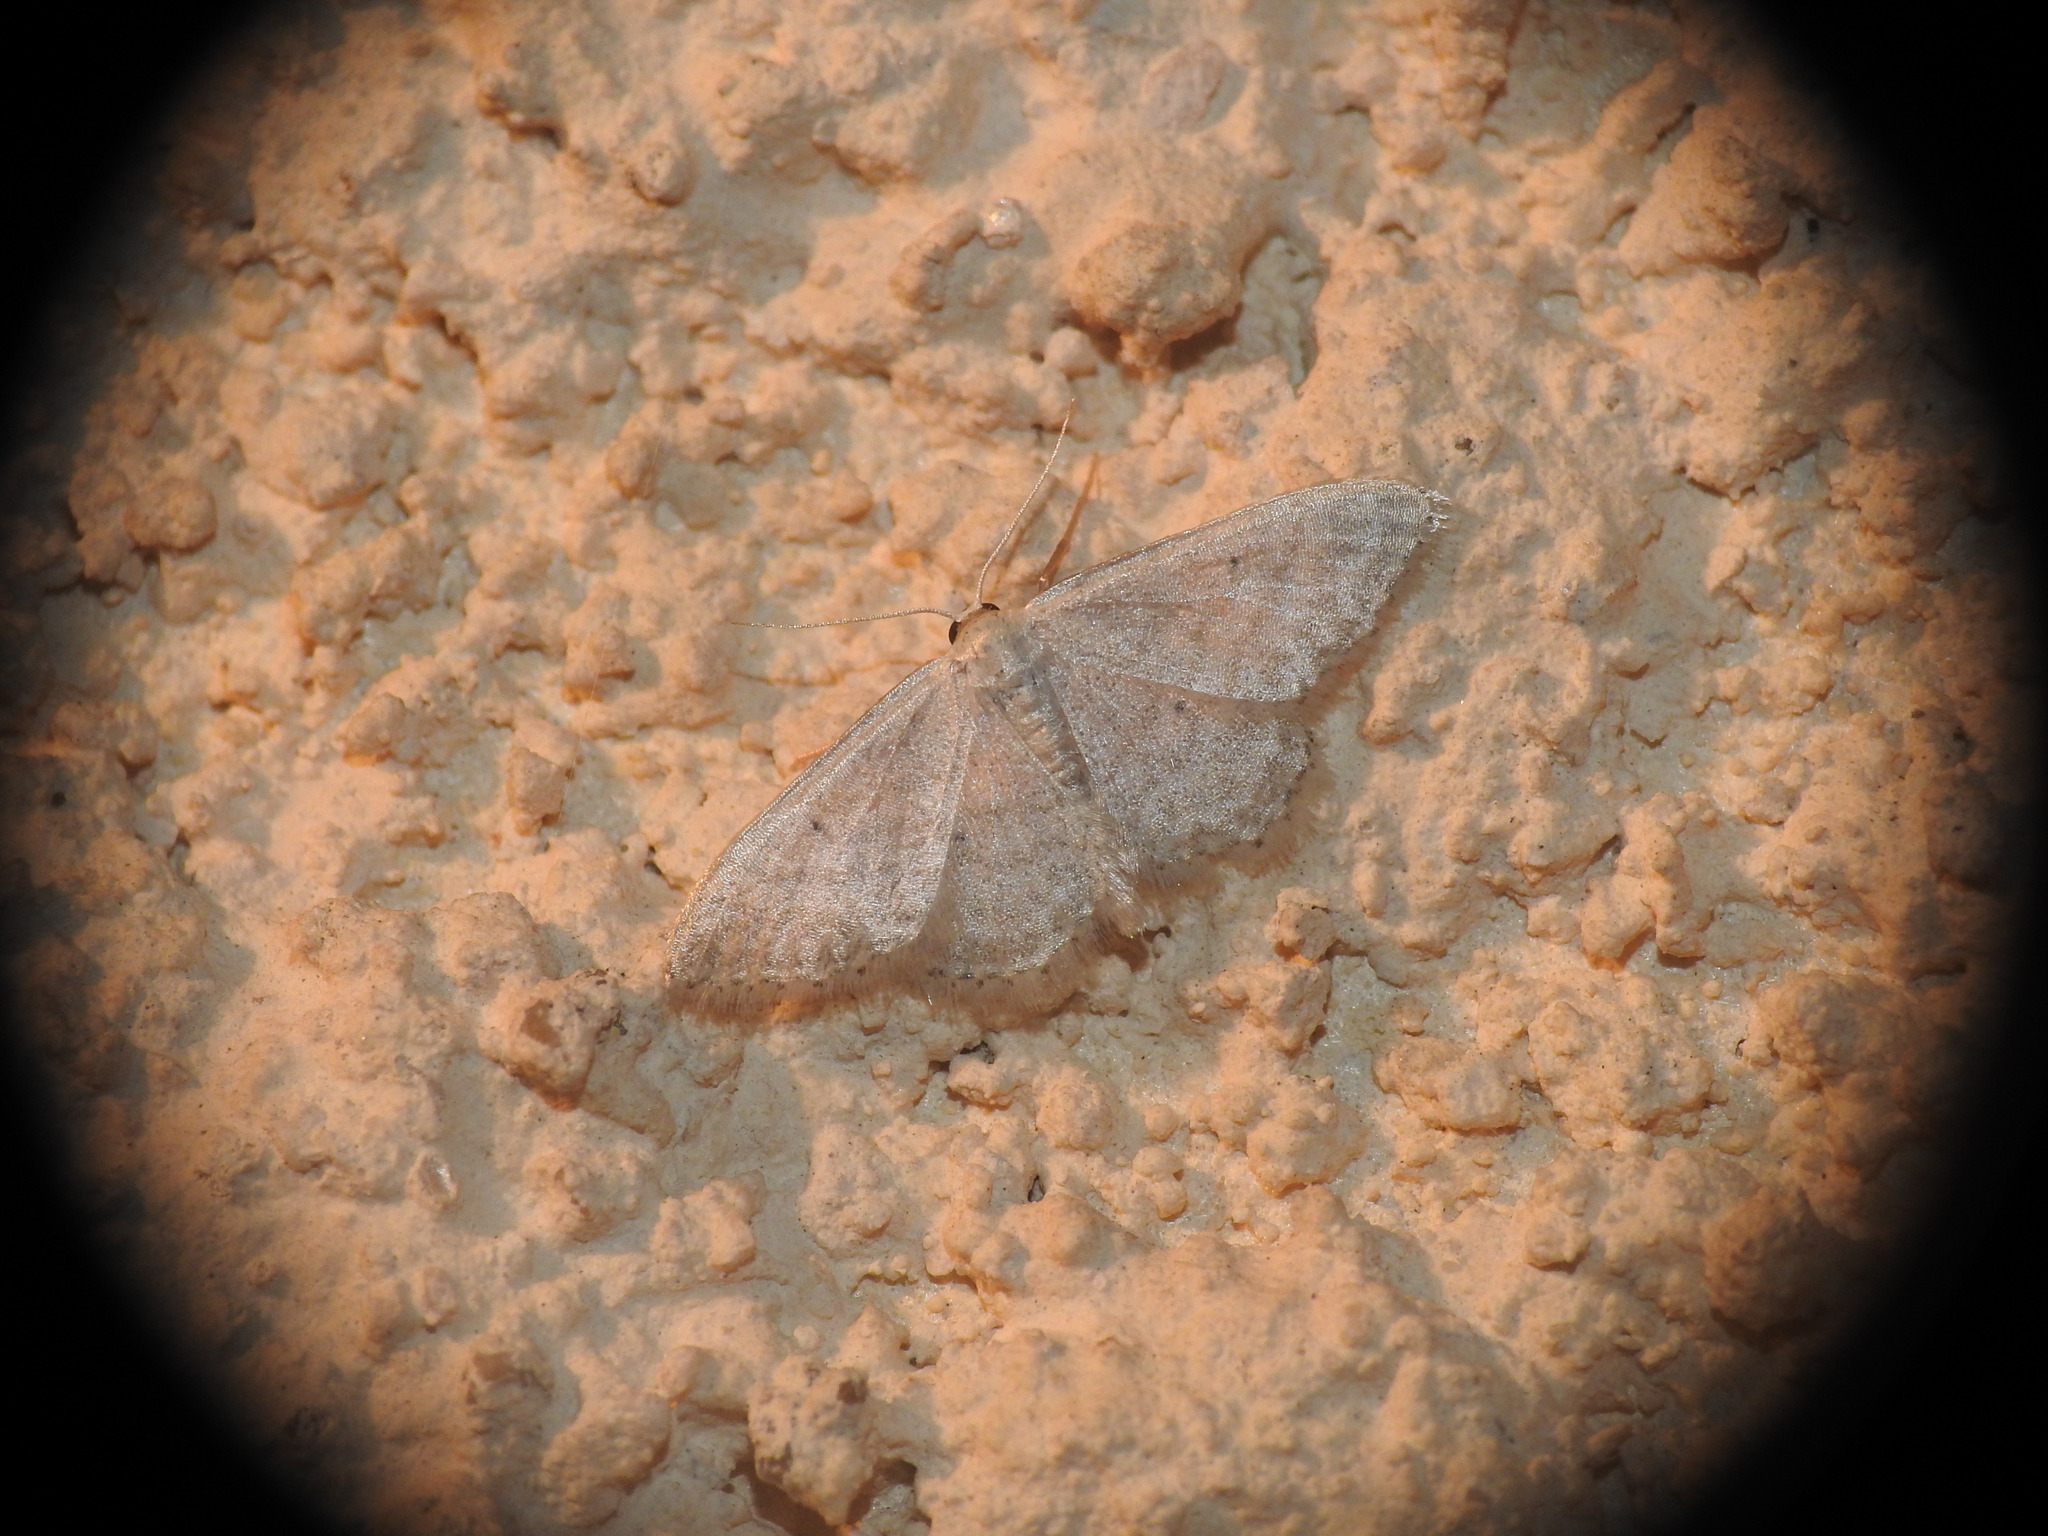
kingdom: Animalia
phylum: Arthropoda
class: Insecta
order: Lepidoptera
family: Geometridae
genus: Idaea
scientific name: Idaea subsericeata
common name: Satin wave
